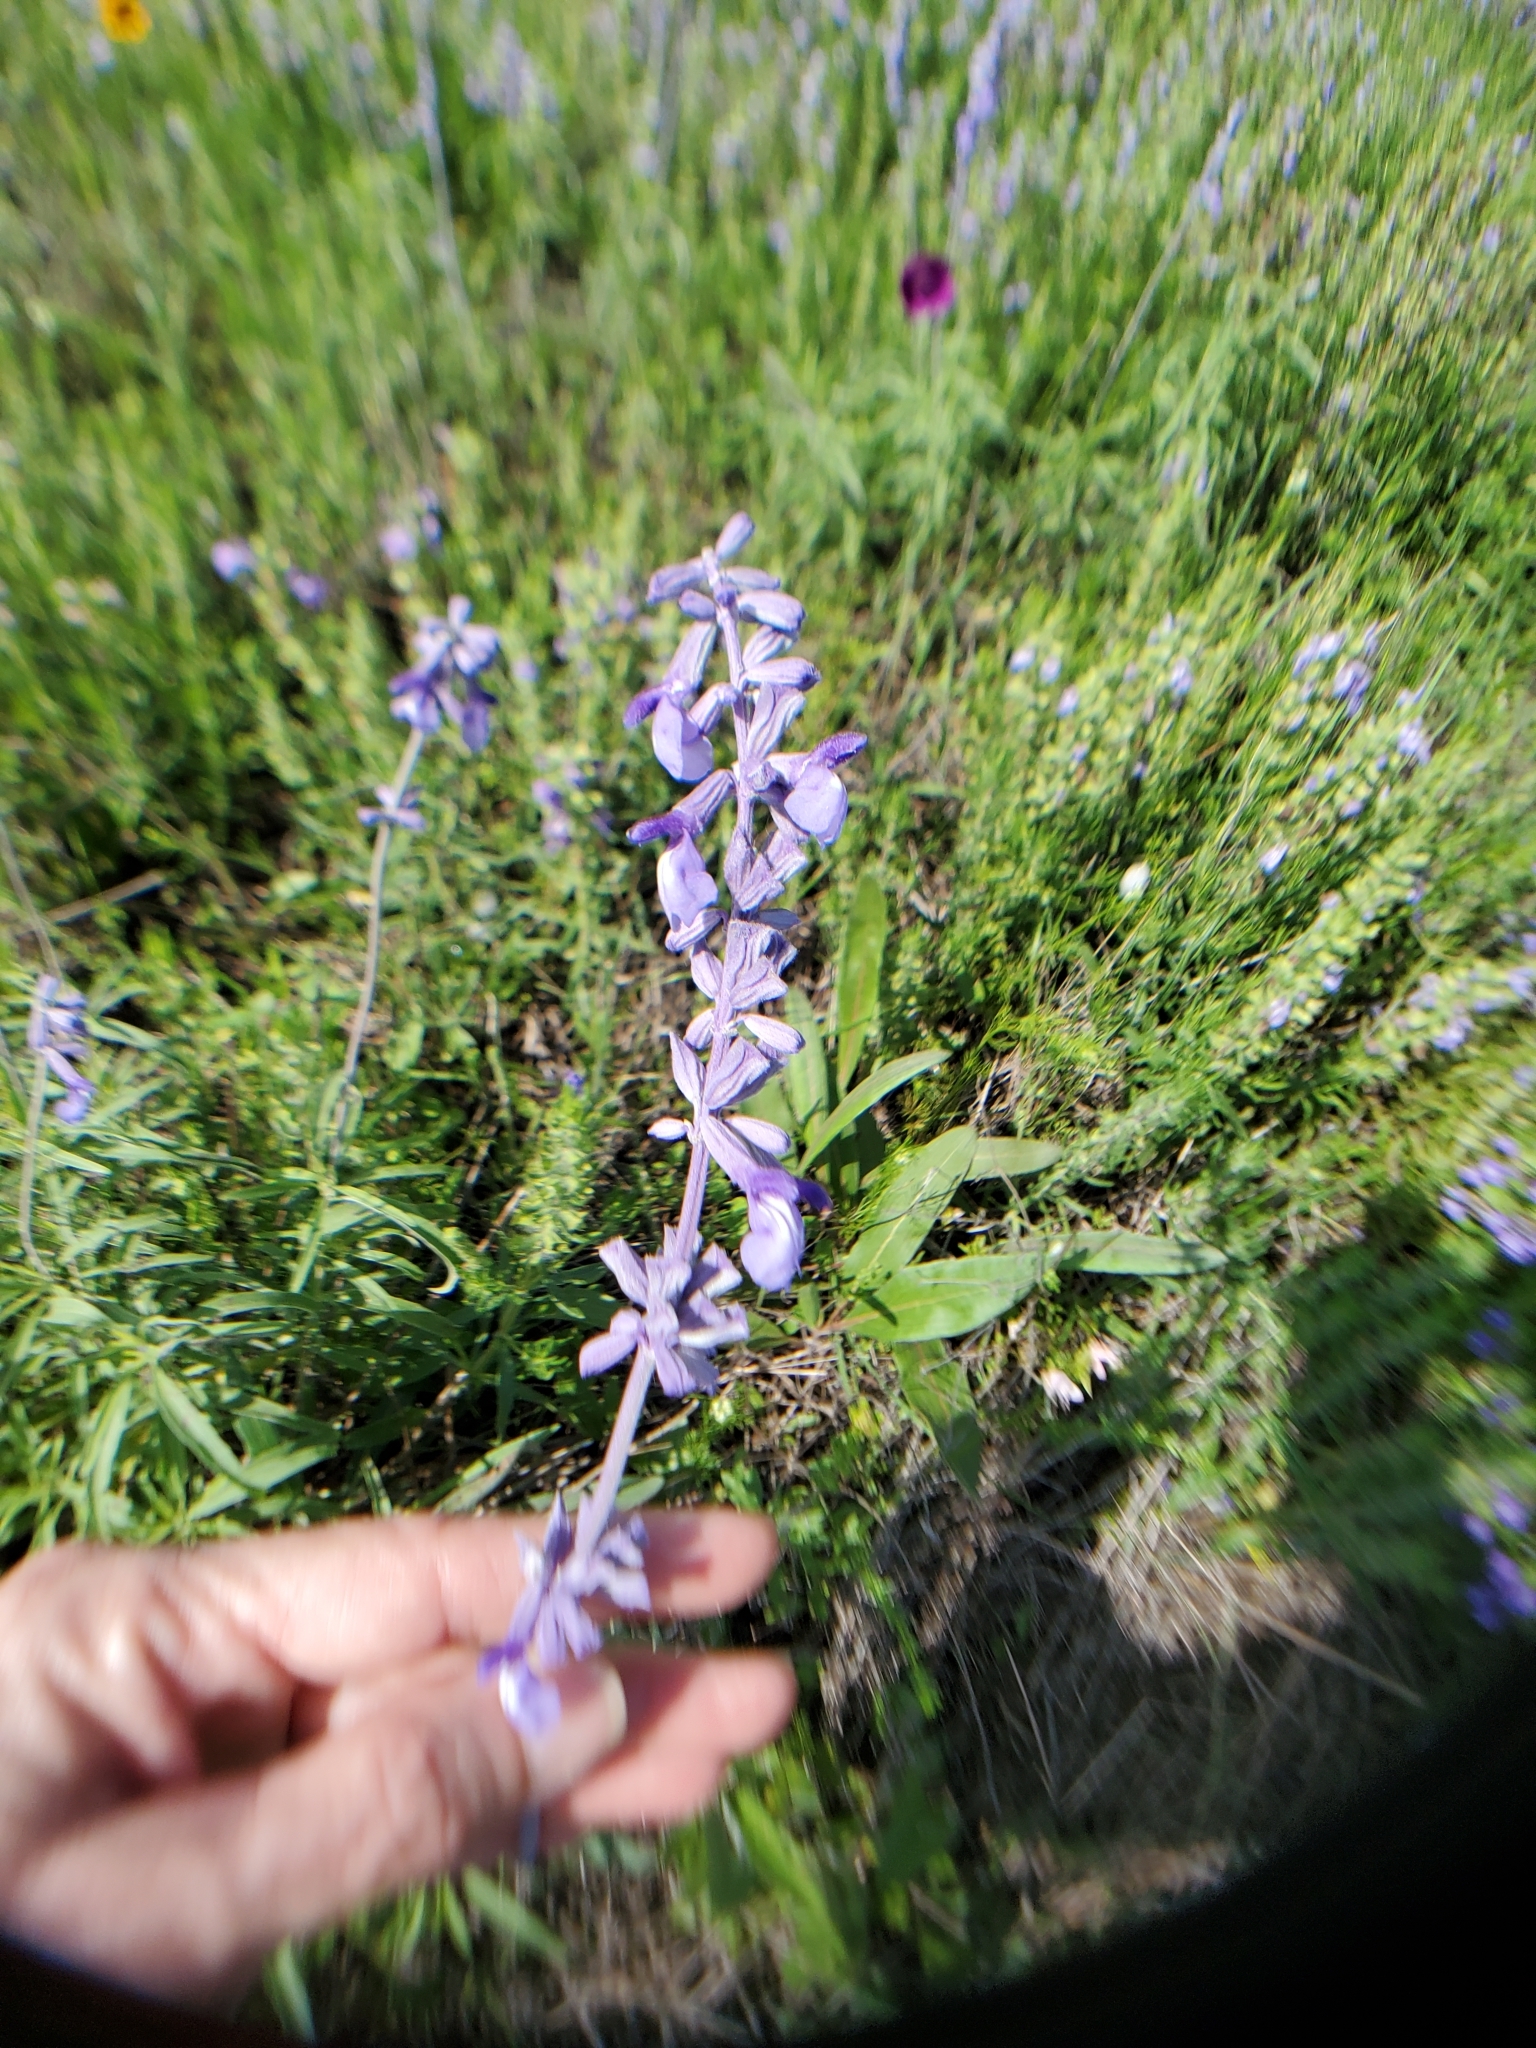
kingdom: Plantae
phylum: Tracheophyta
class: Magnoliopsida
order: Lamiales
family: Lamiaceae
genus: Salvia
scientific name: Salvia farinacea
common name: Mealy sage
